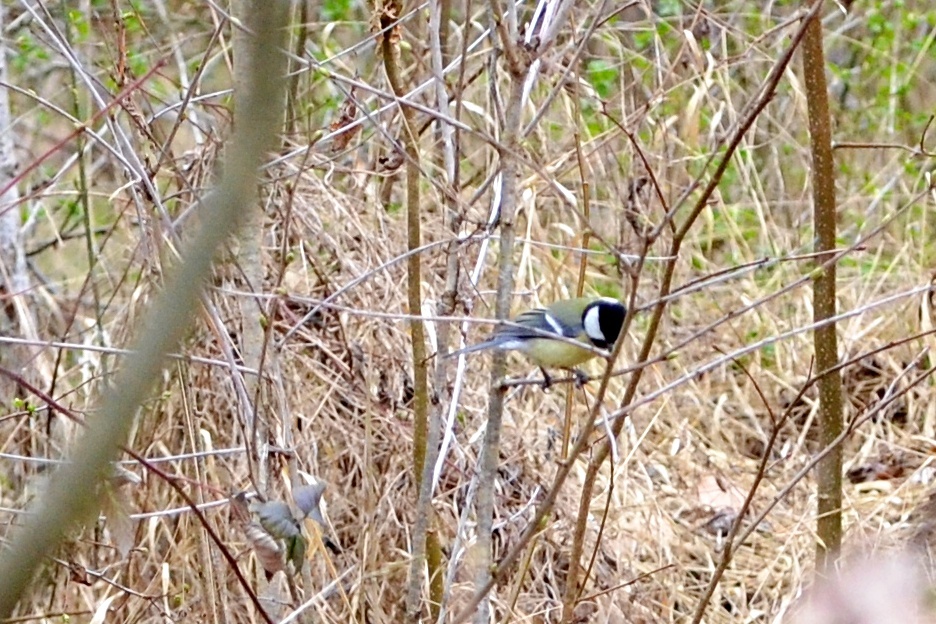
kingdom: Animalia
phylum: Chordata
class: Aves
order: Passeriformes
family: Paridae
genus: Parus
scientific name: Parus major
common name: Great tit
